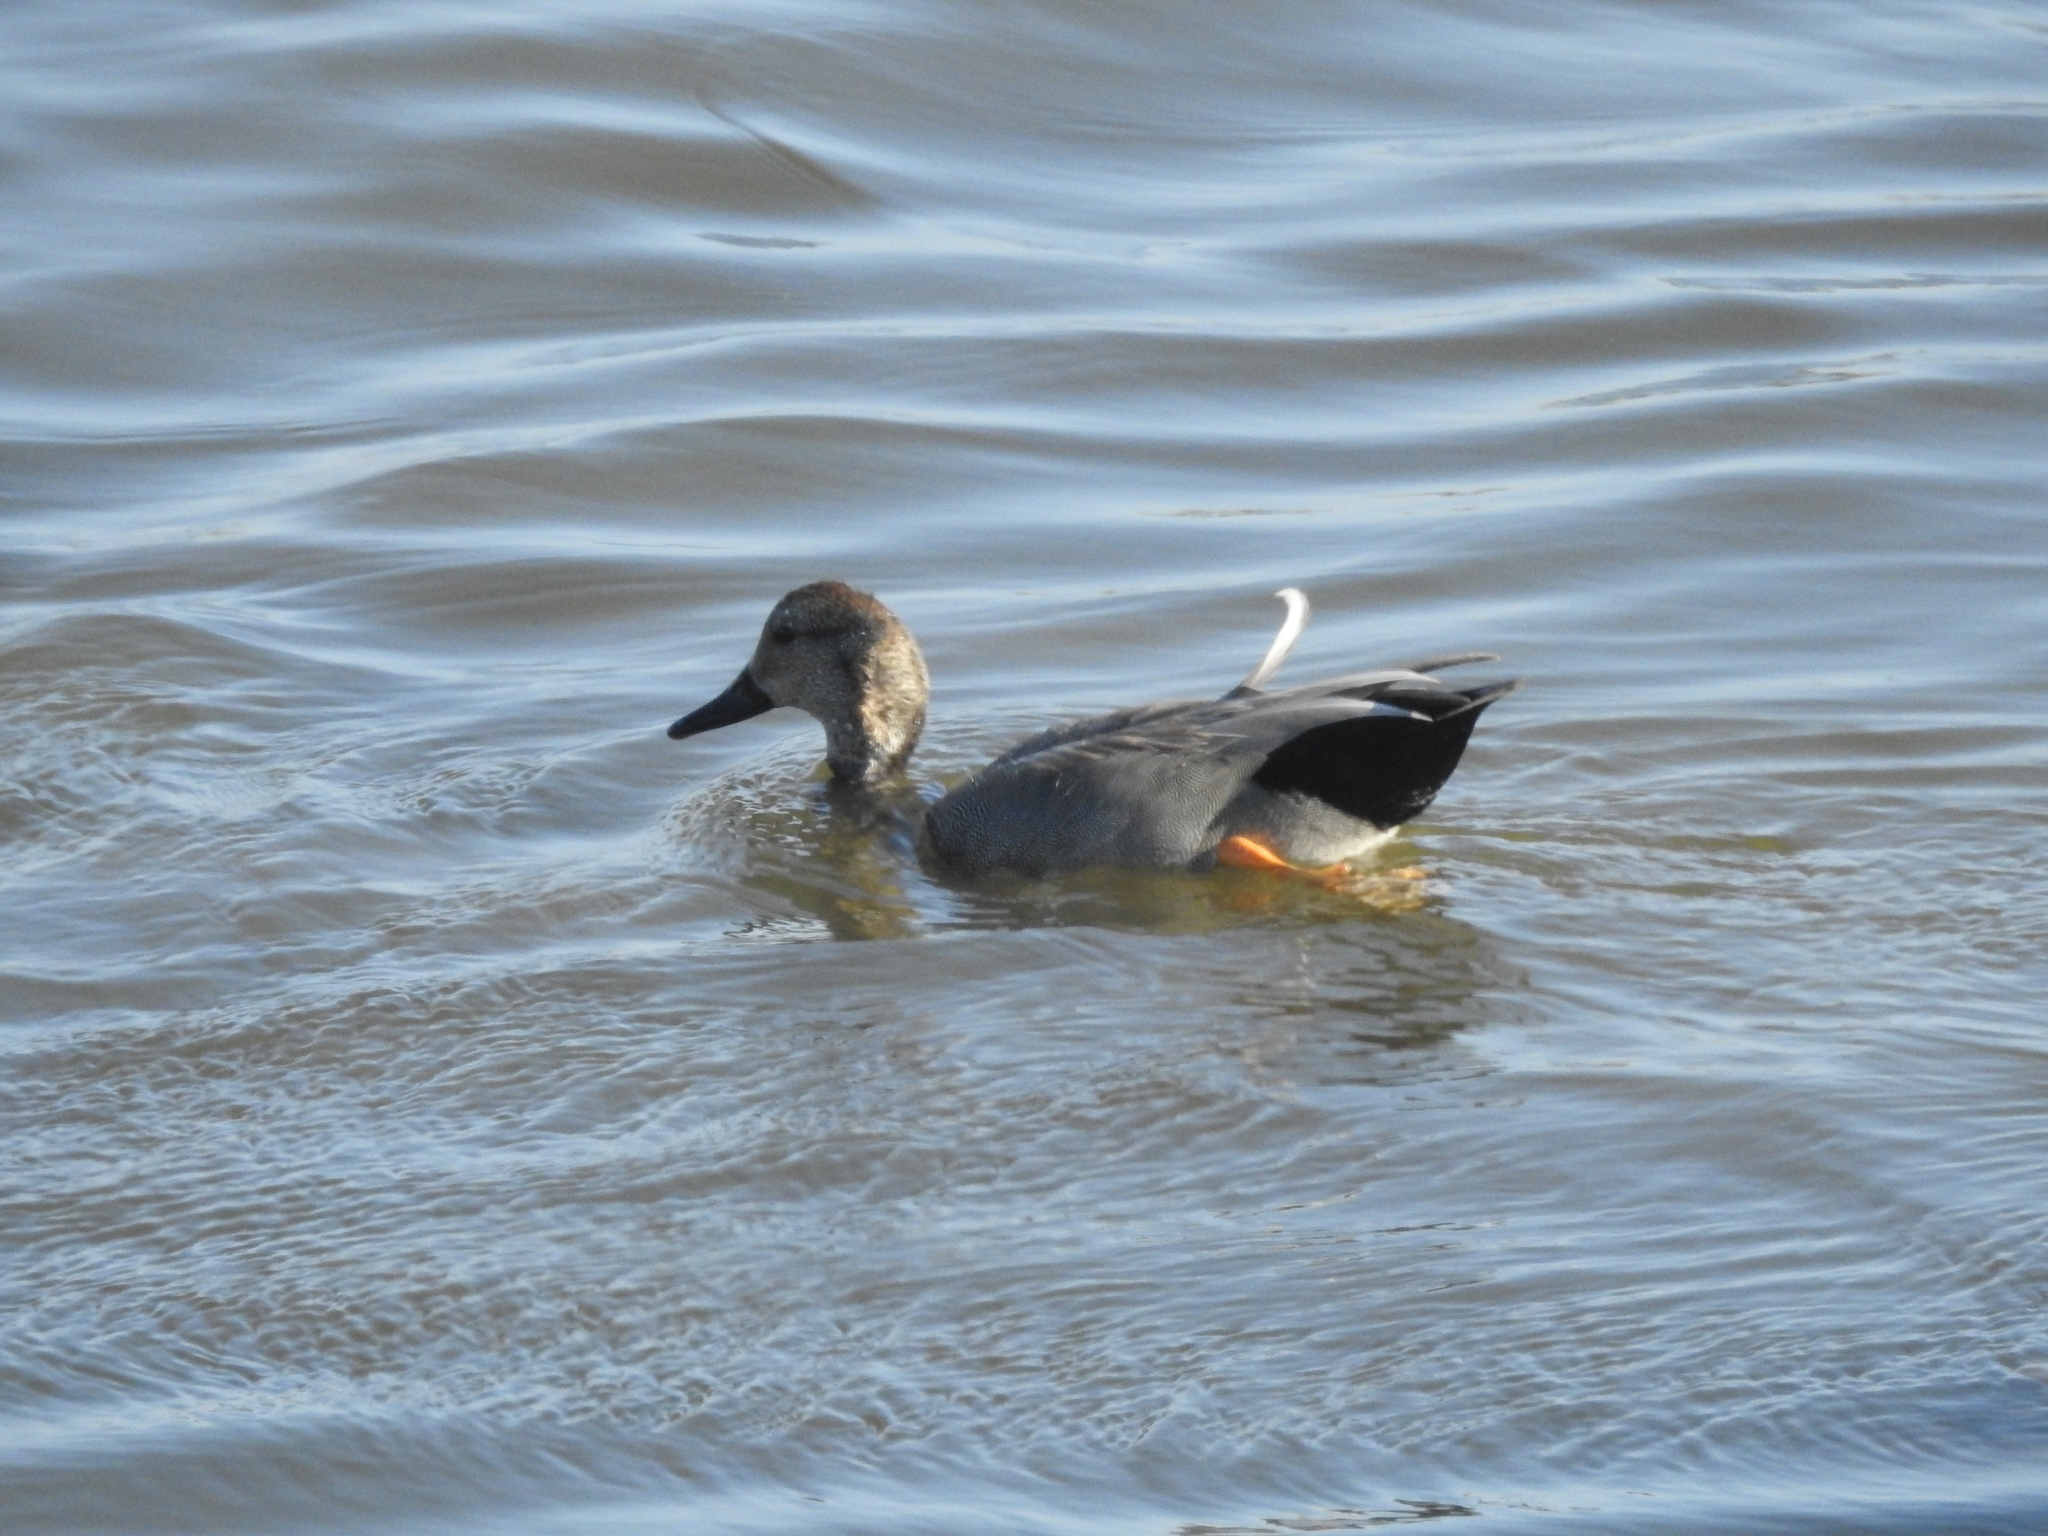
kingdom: Animalia
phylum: Chordata
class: Aves
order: Anseriformes
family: Anatidae
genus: Mareca
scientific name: Mareca strepera
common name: Gadwall
